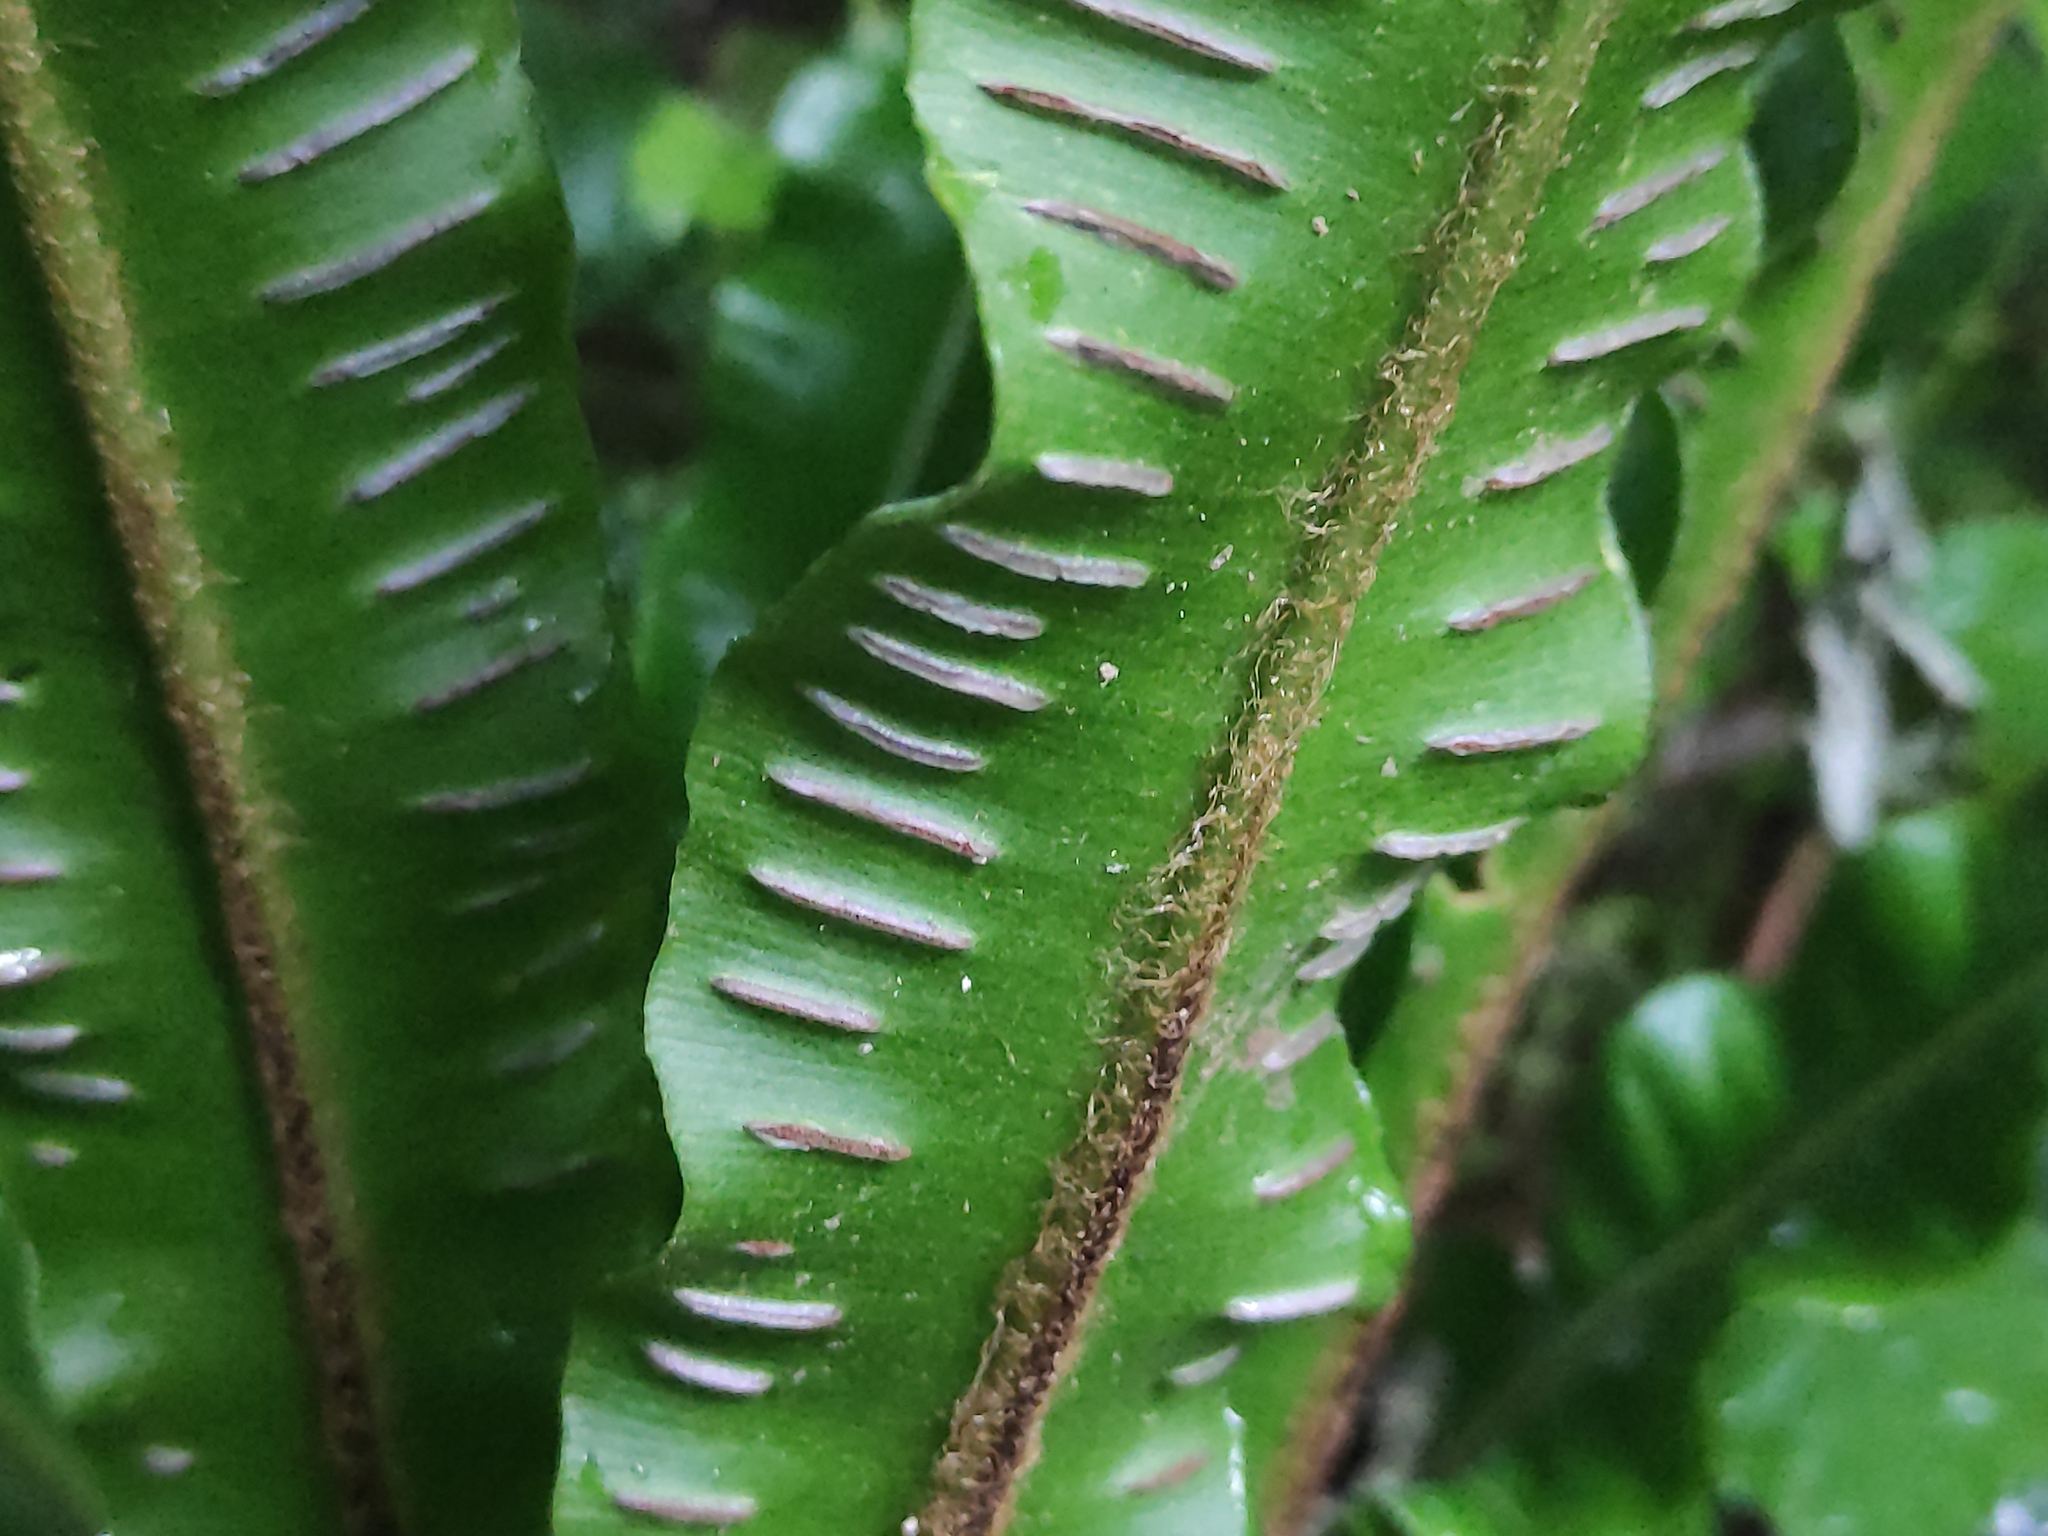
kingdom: Plantae
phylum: Tracheophyta
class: Polypodiopsida
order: Polypodiales
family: Aspleniaceae
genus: Asplenium
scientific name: Asplenium scolopendrium
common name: Hart's-tongue fern
